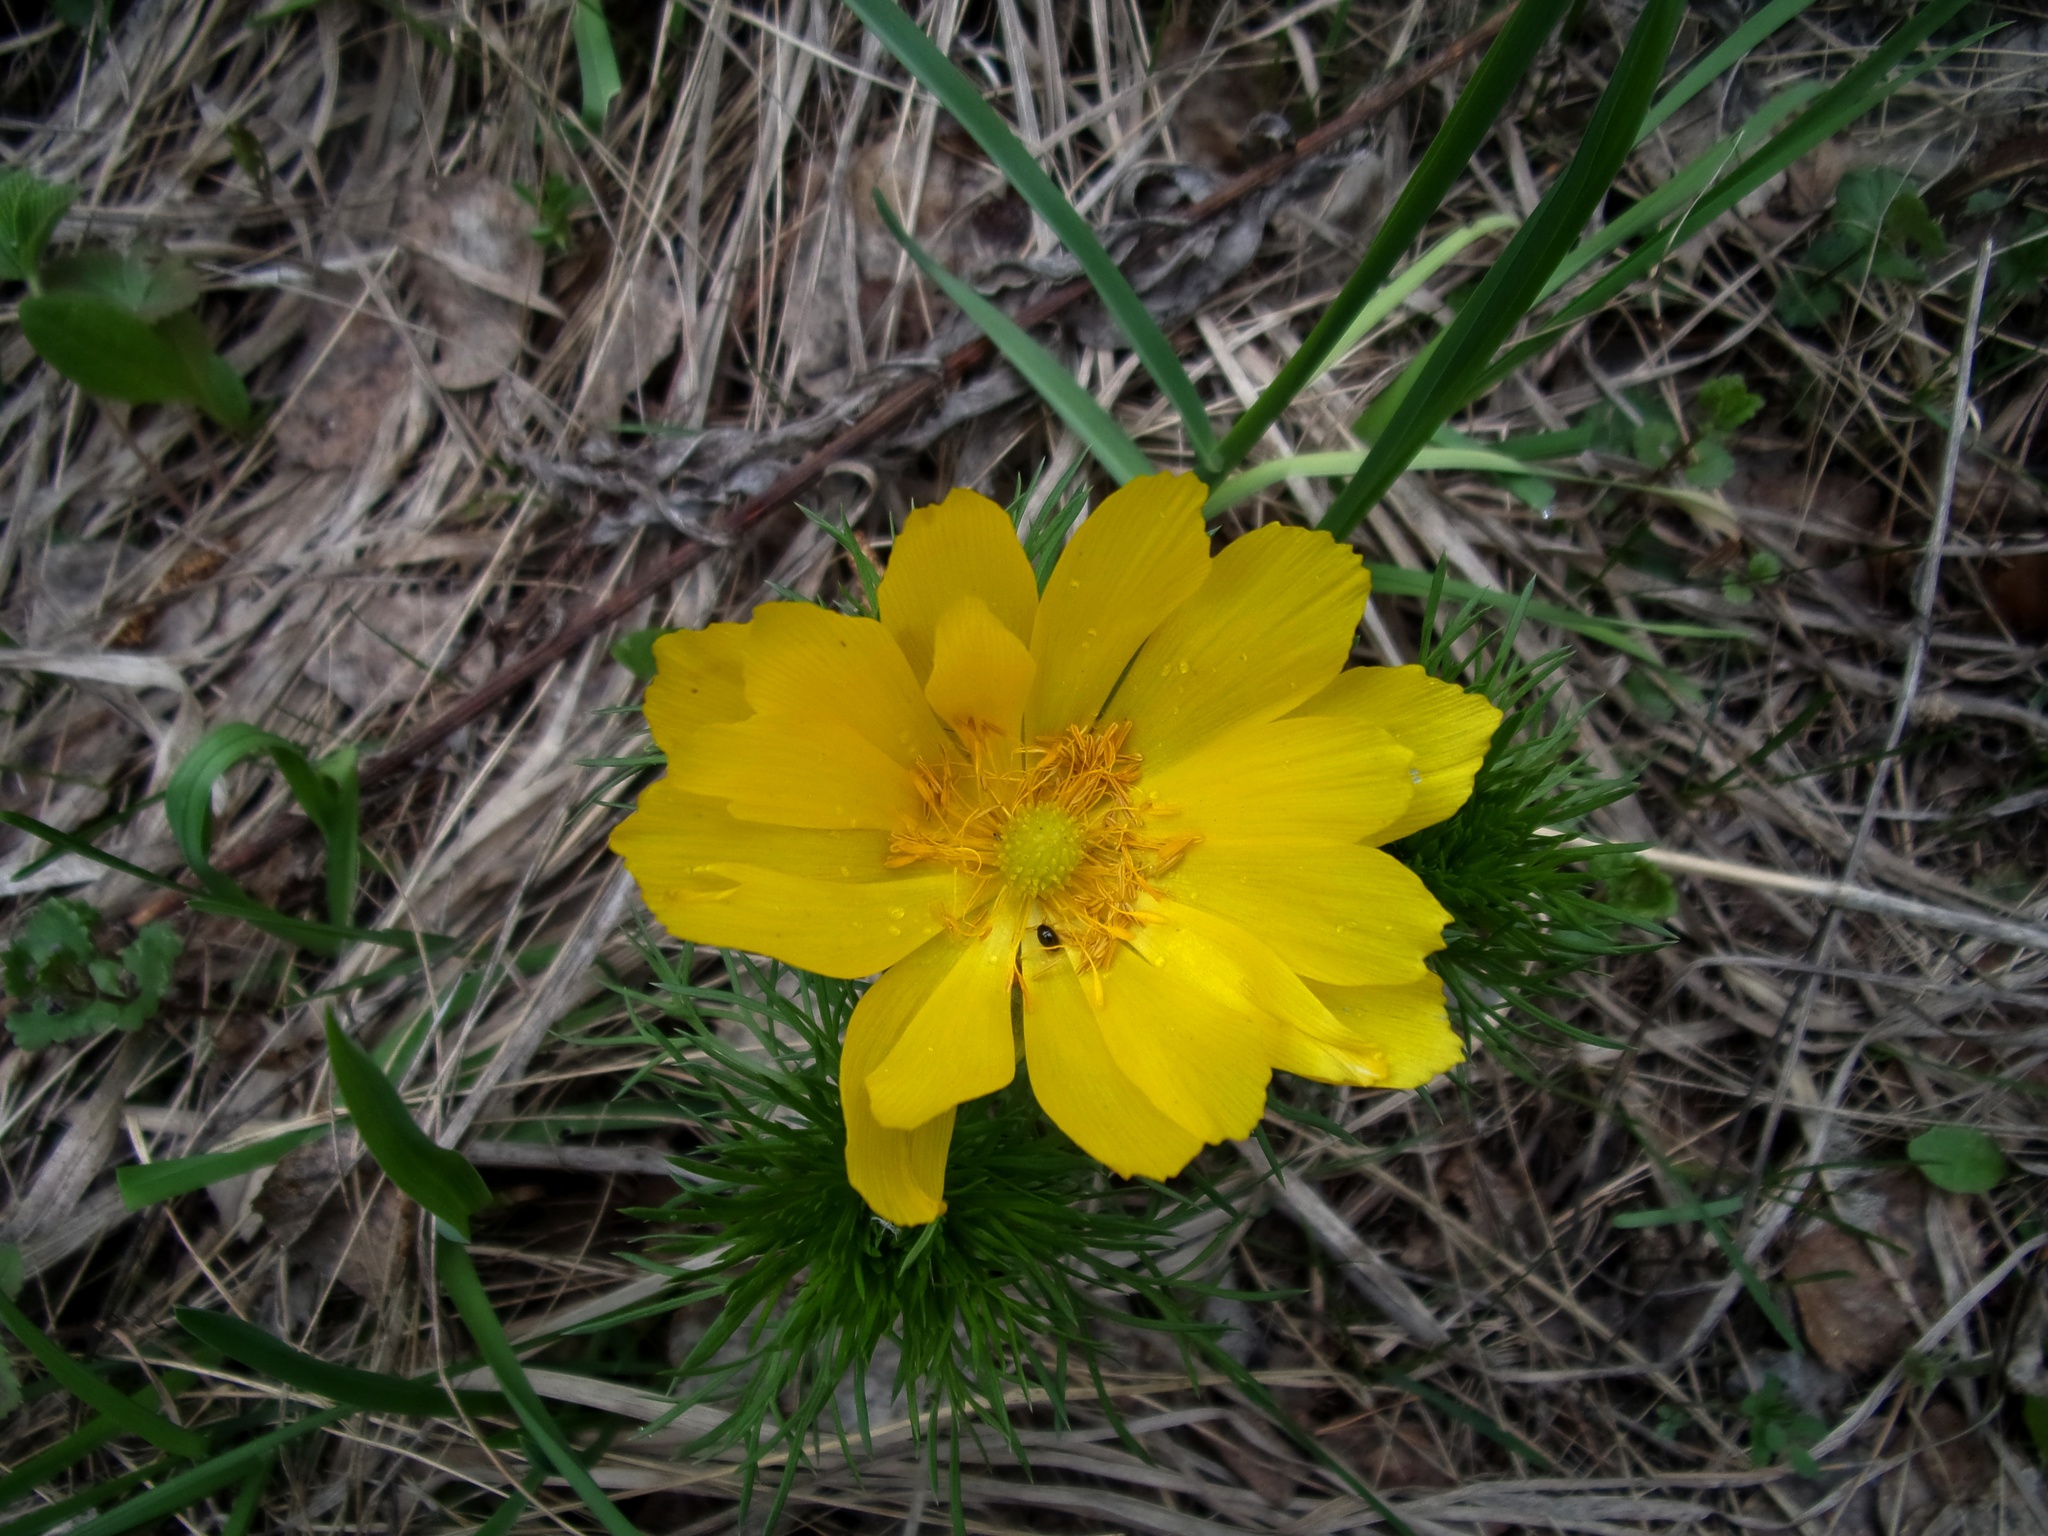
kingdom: Plantae
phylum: Tracheophyta
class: Magnoliopsida
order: Ranunculales
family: Ranunculaceae
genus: Adonis
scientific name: Adonis vernalis
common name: Yellow pheasants-eye
